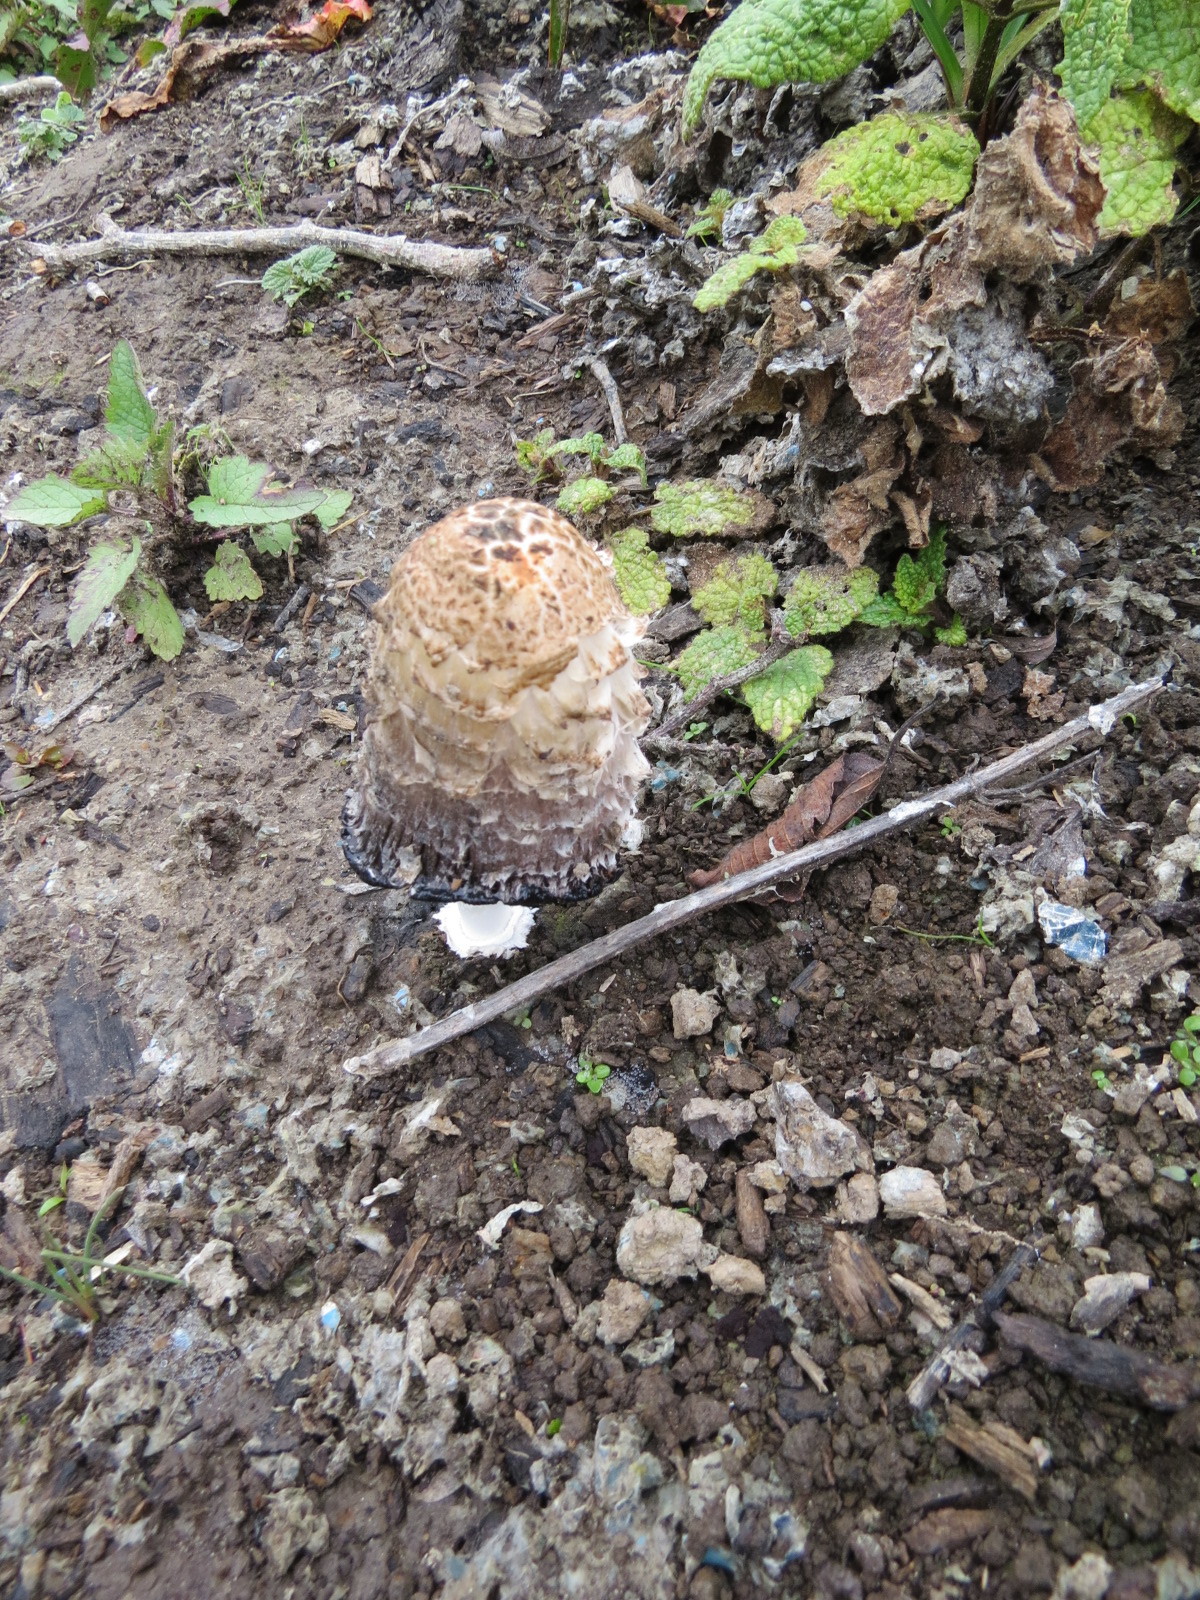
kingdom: Fungi
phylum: Basidiomycota
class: Agaricomycetes
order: Agaricales
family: Agaricaceae
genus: Coprinus
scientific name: Coprinus comatus
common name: Lawyer's wig
